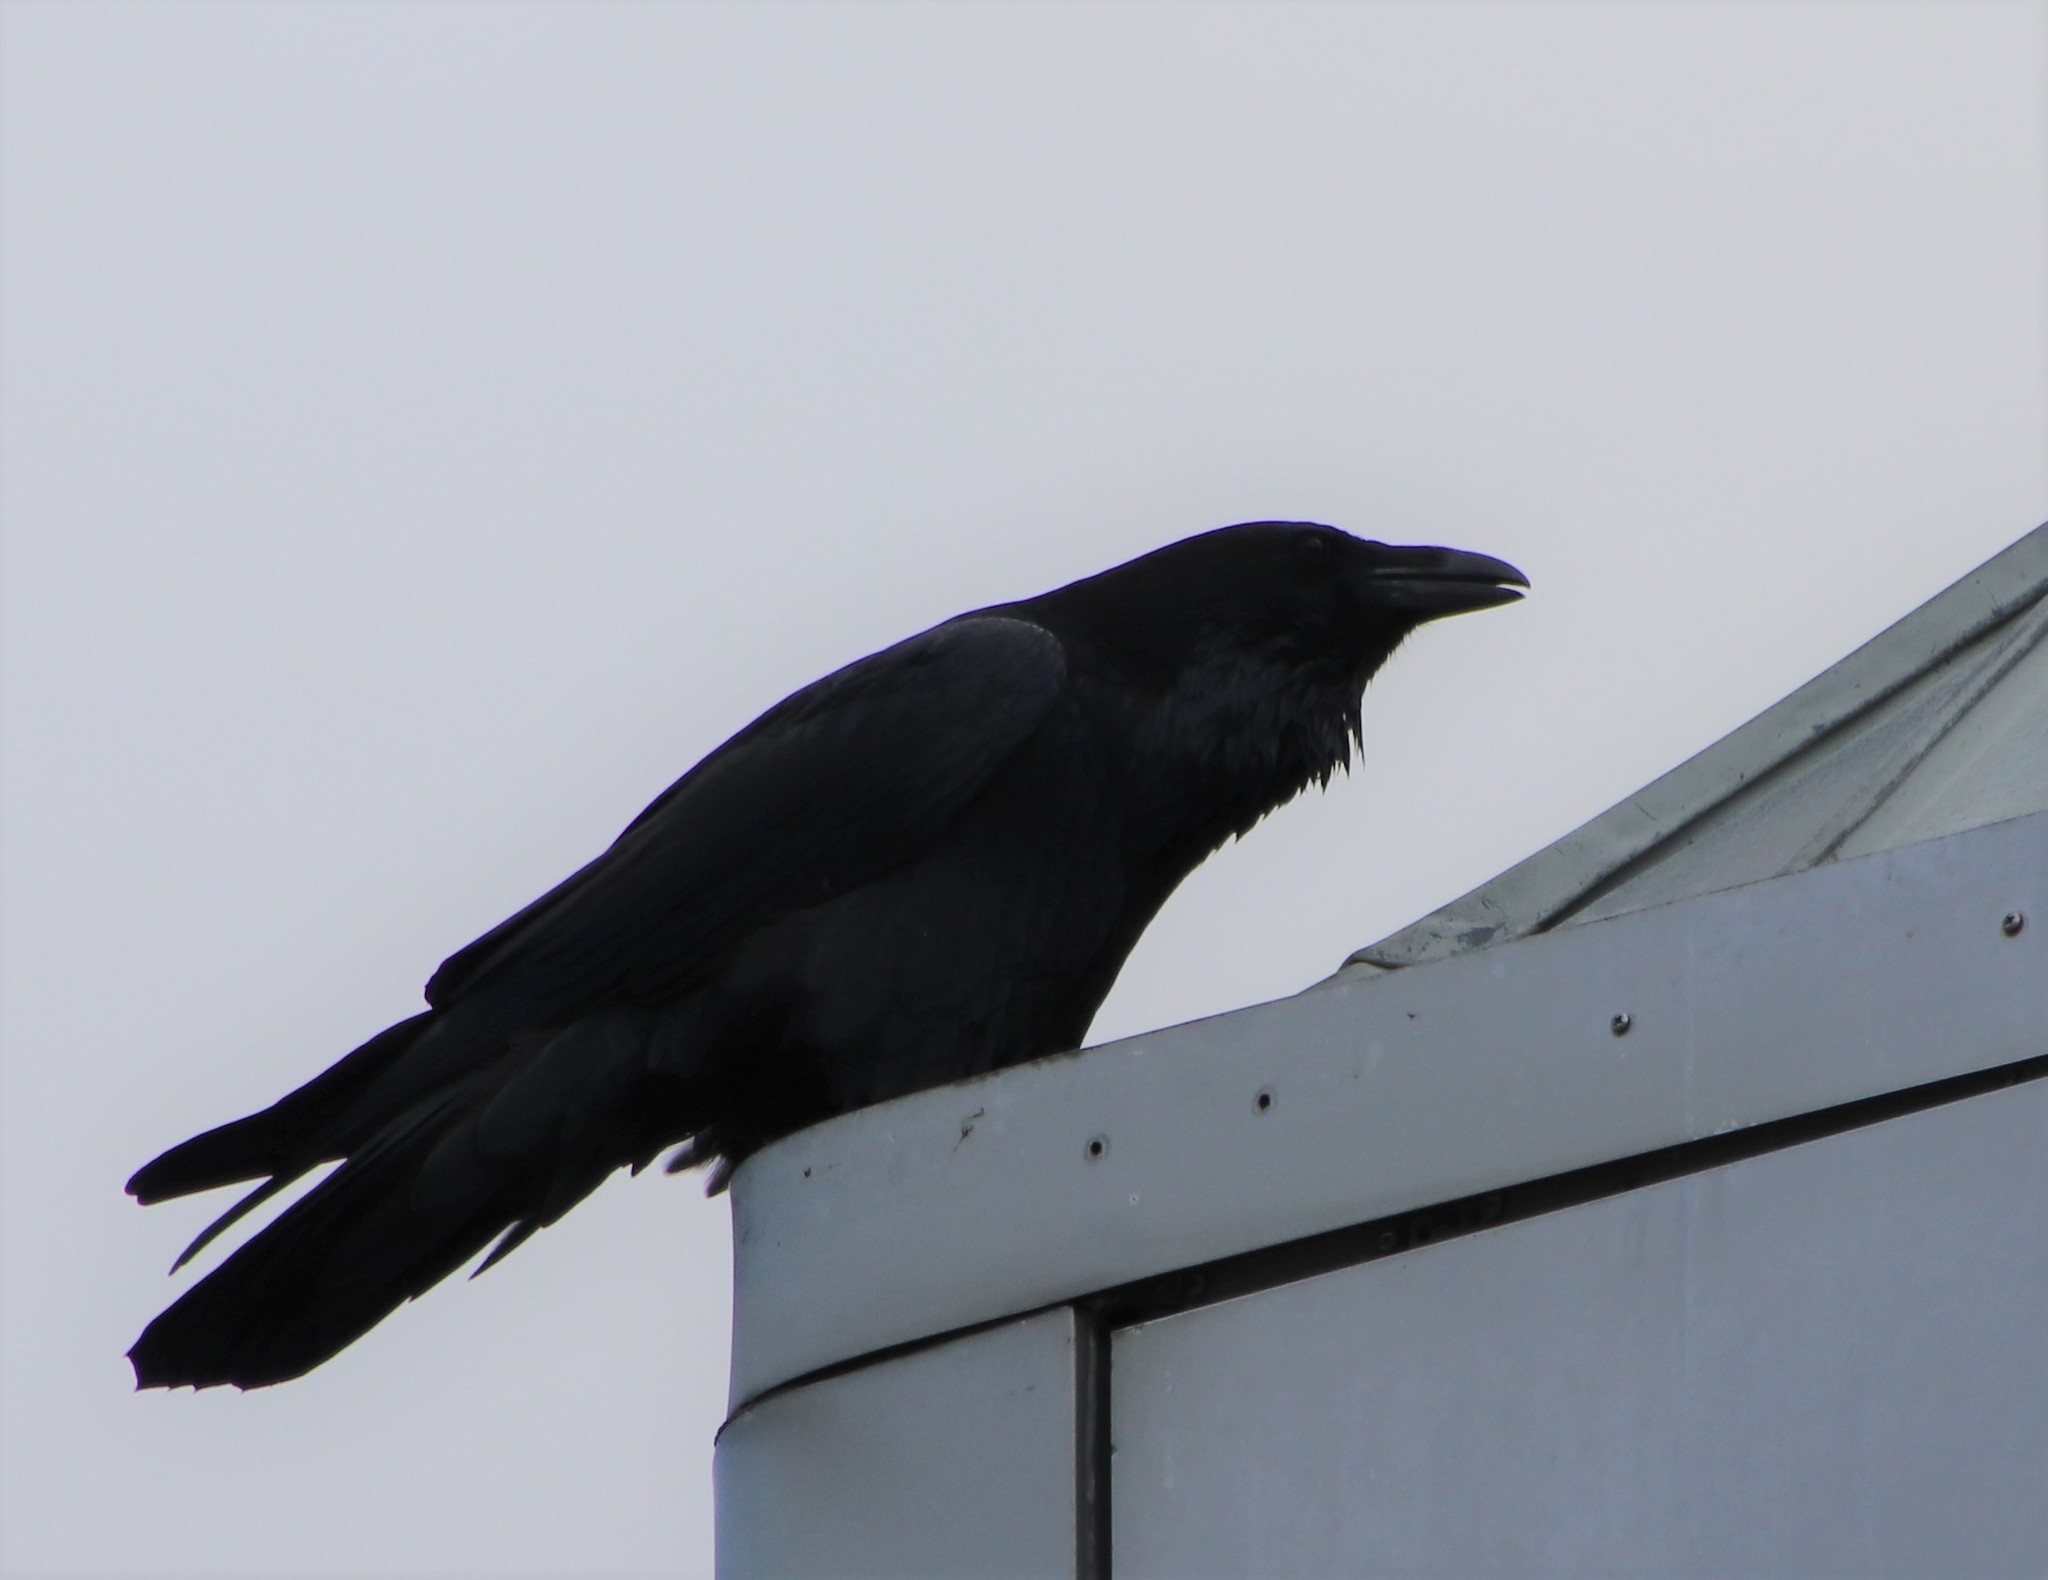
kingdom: Animalia
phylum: Chordata
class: Aves
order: Passeriformes
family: Corvidae
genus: Corvus
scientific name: Corvus corax
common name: Common raven
